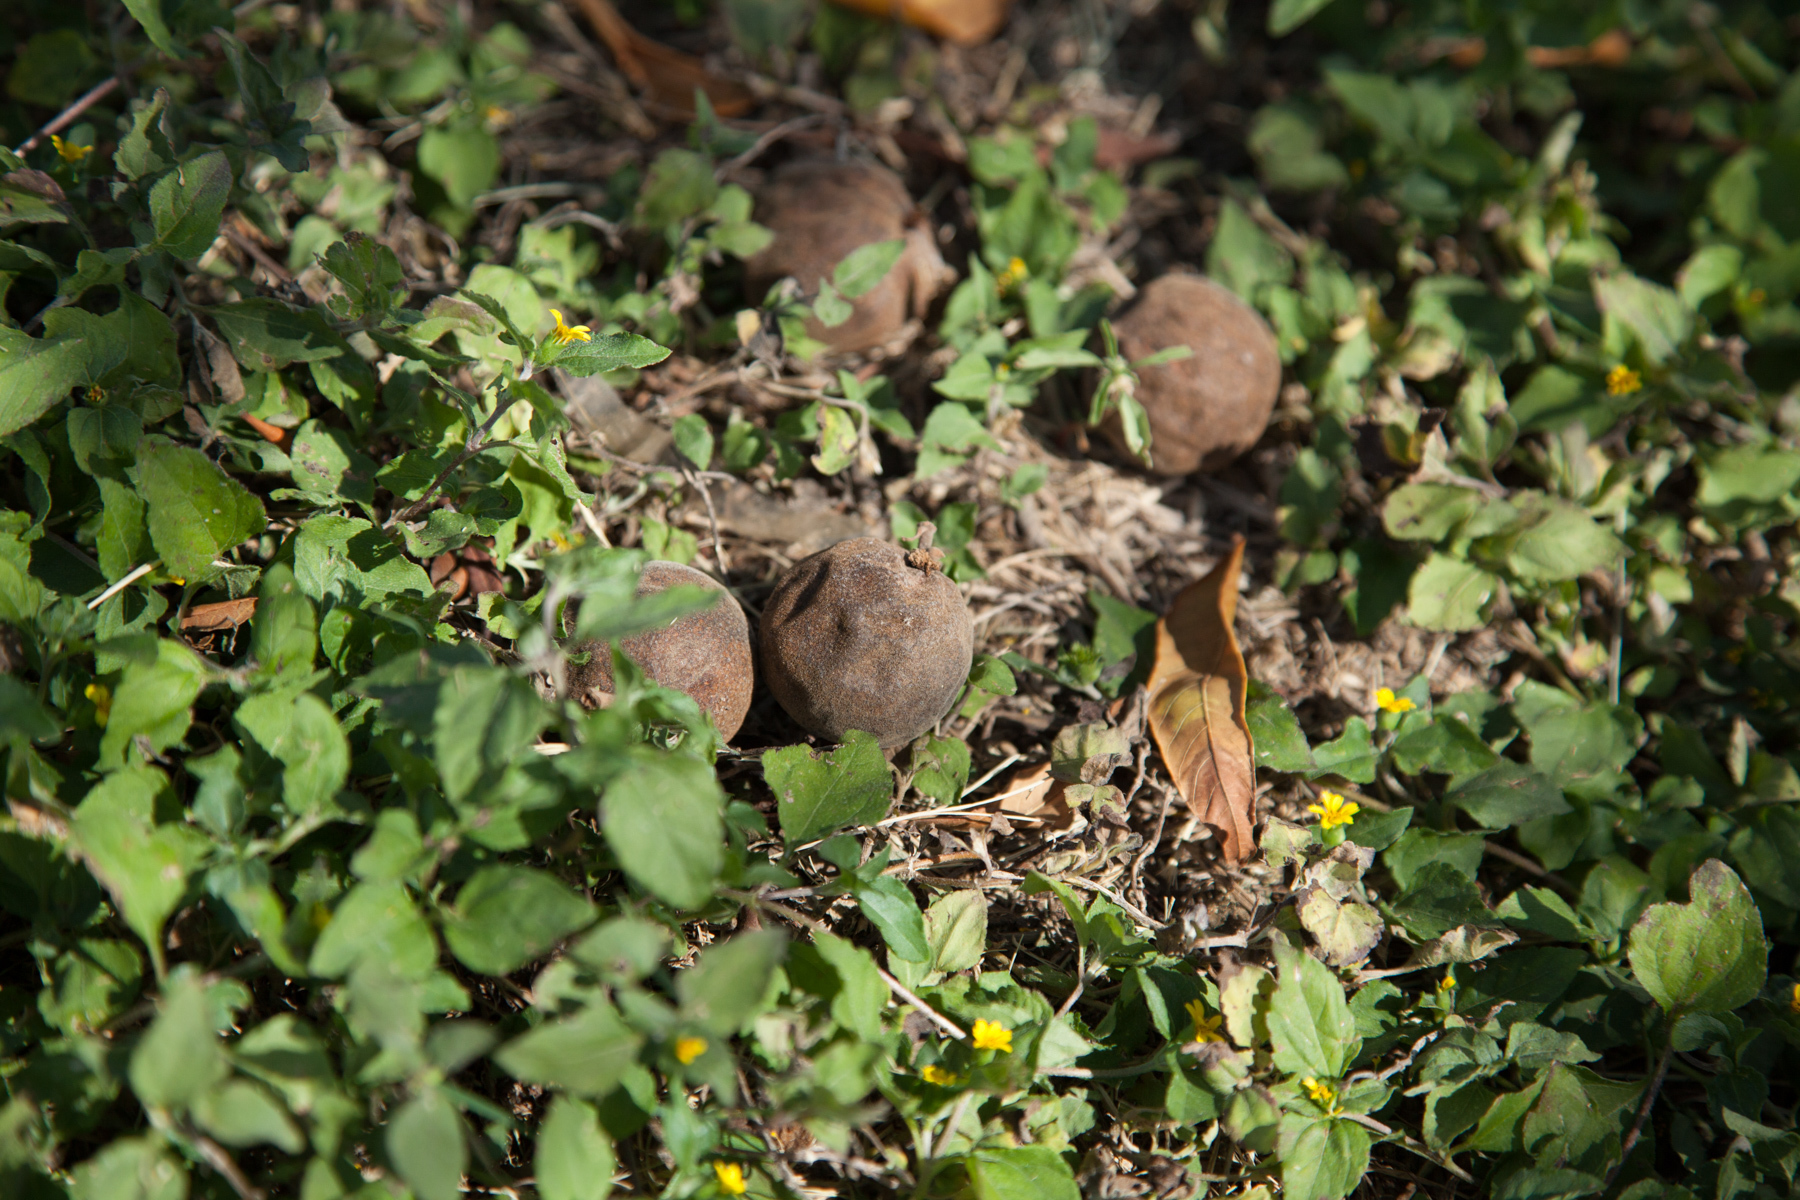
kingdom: Plantae
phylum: Tracheophyta
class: Magnoliopsida
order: Fagales
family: Juglandaceae
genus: Juglans
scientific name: Juglans microcarpa
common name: Texas walnut
